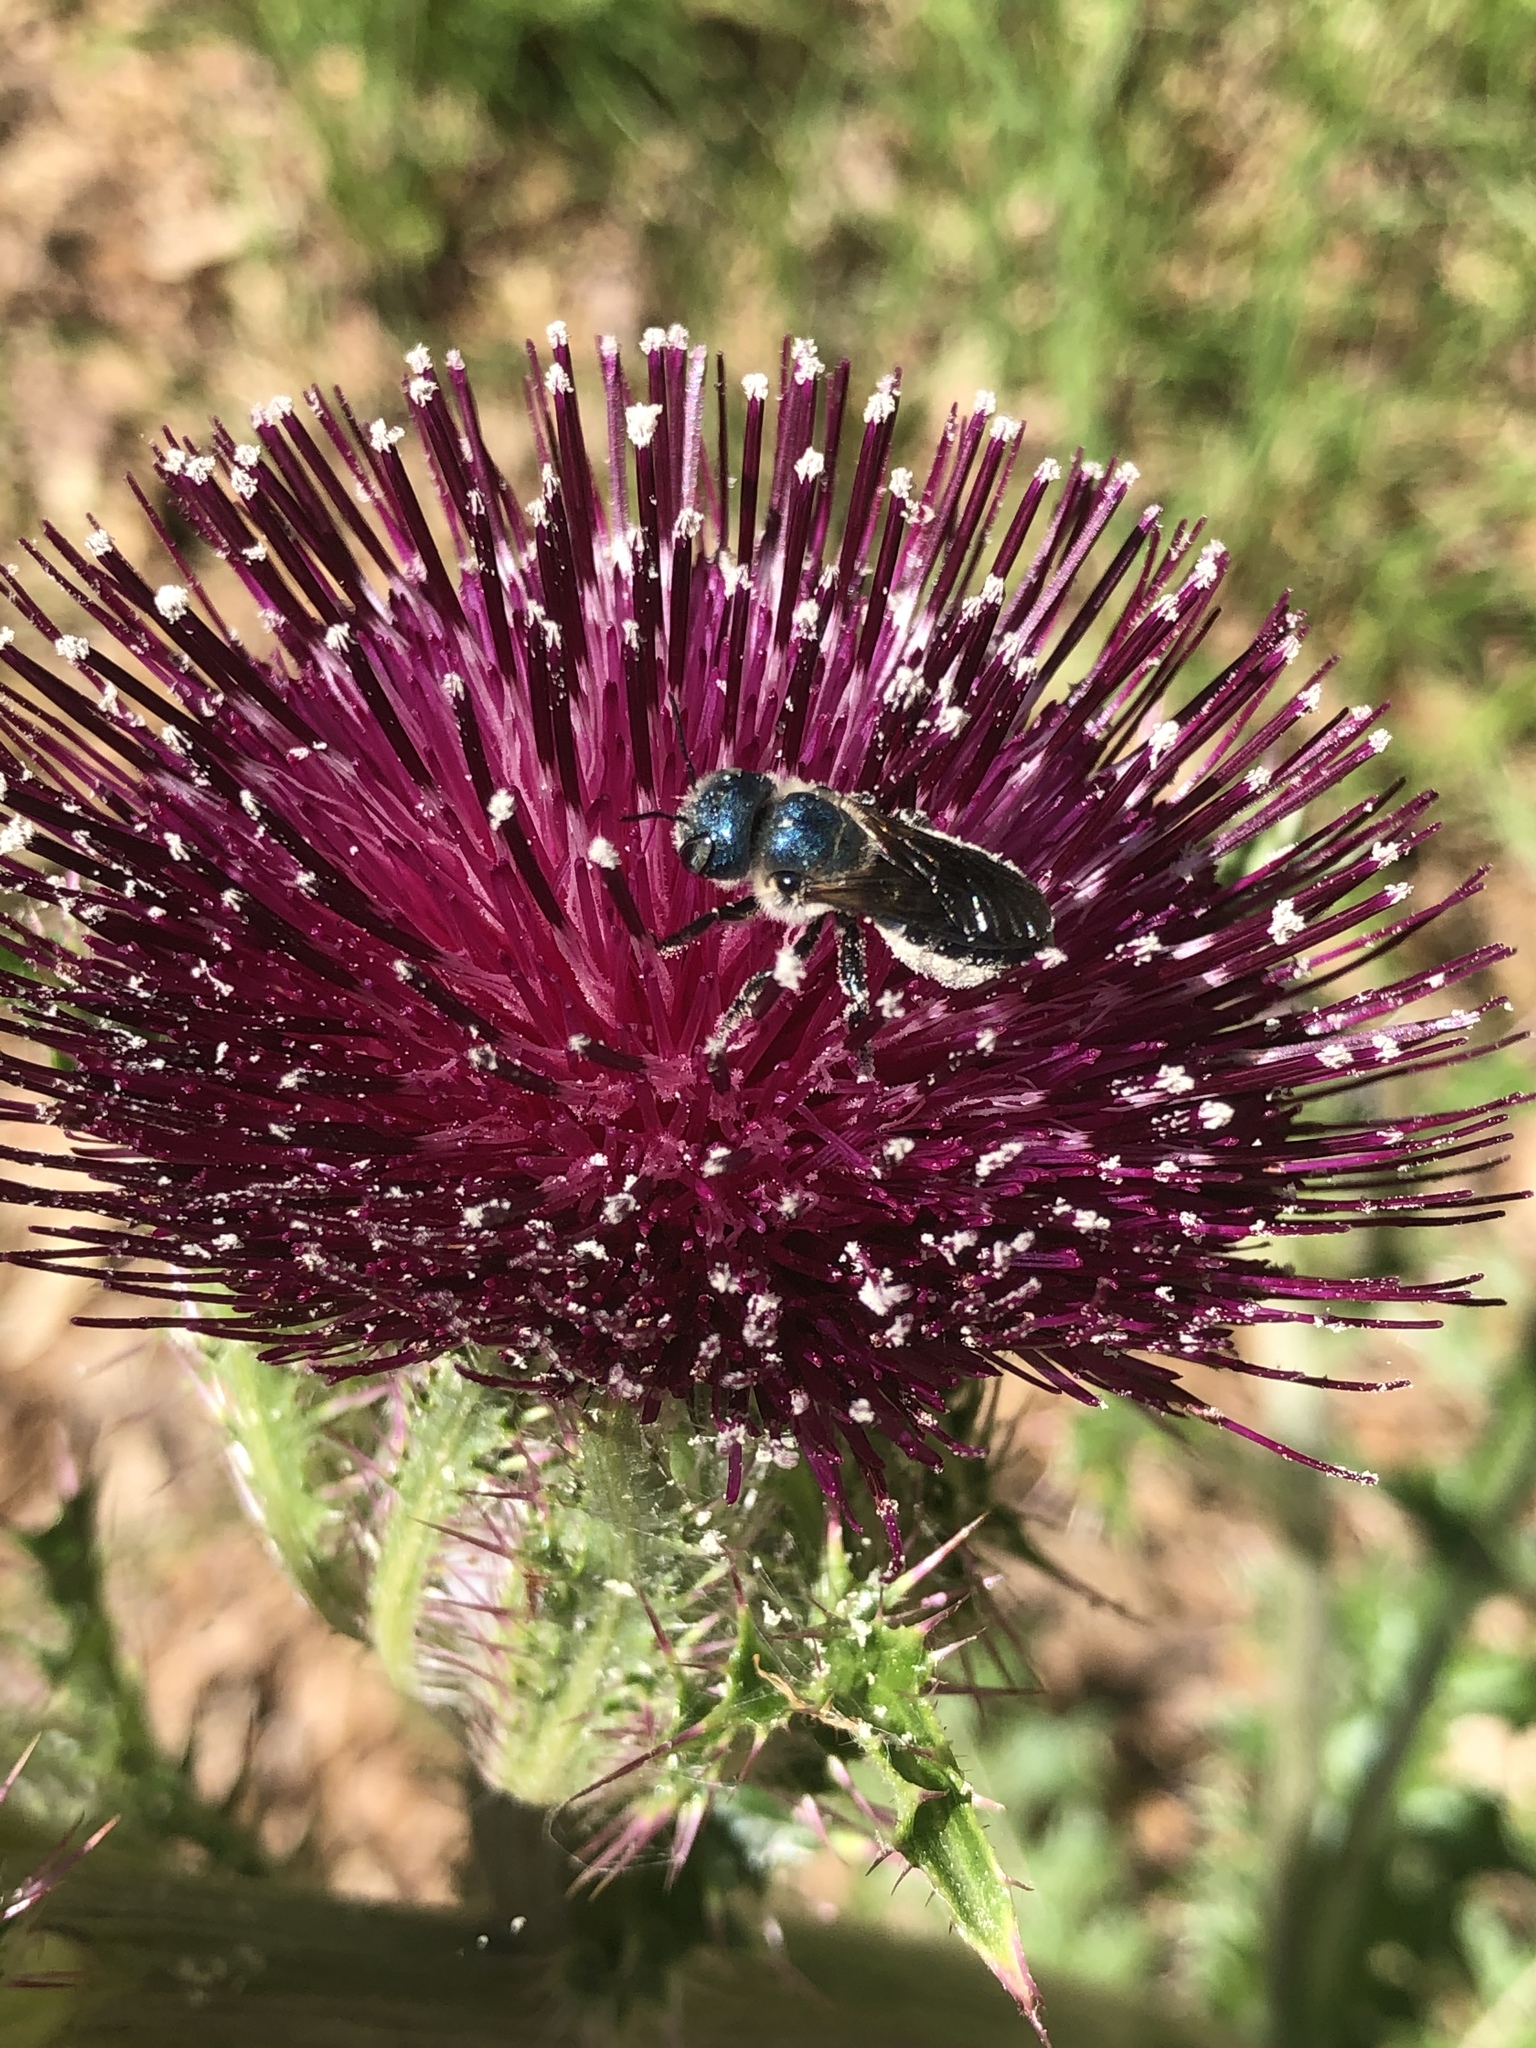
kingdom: Plantae
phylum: Tracheophyta
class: Magnoliopsida
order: Asterales
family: Asteraceae
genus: Cirsium
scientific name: Cirsium horridulum
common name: Bristly thistle
